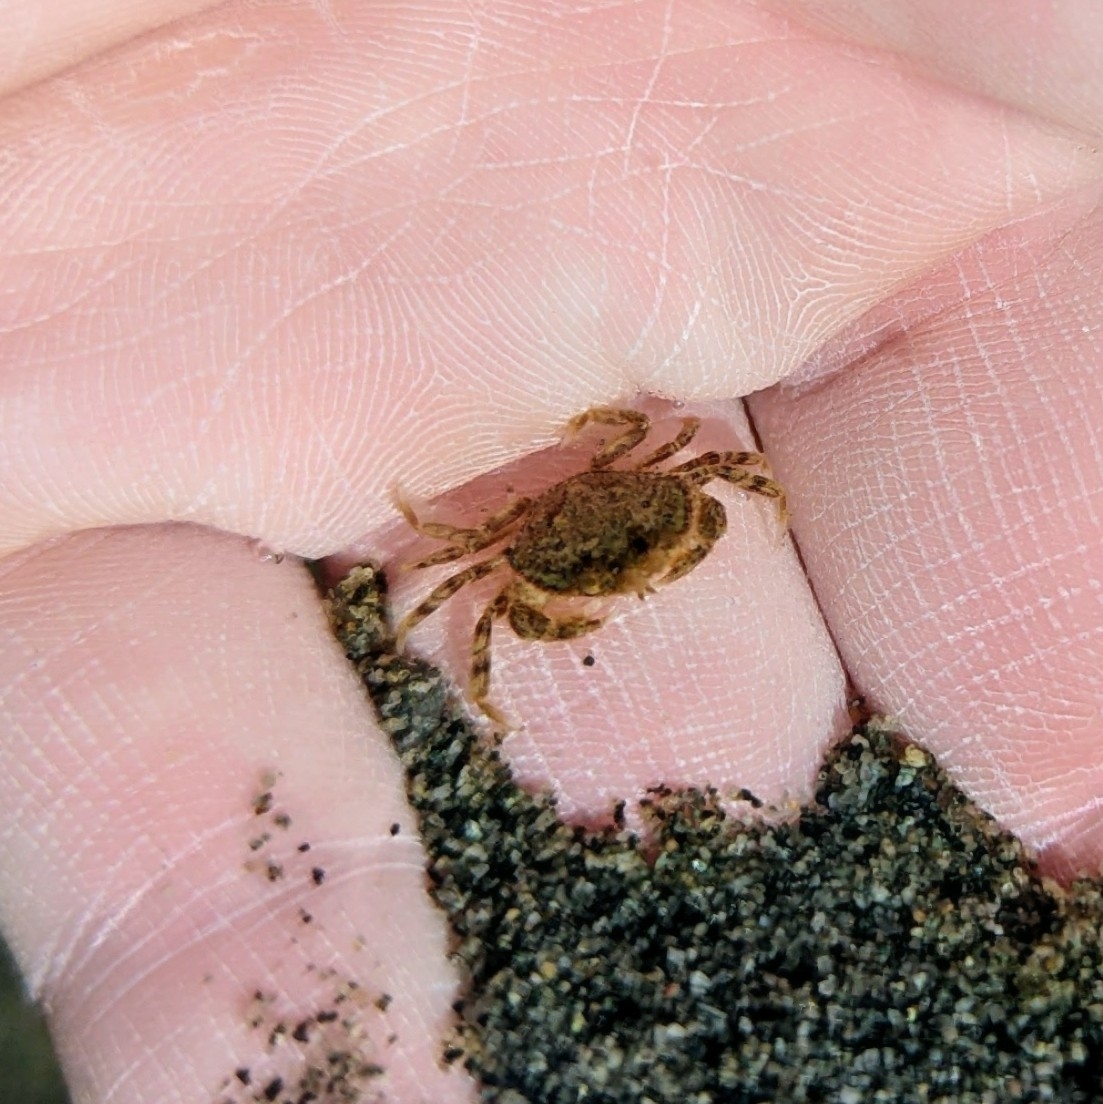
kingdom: Animalia
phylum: Arthropoda
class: Malacostraca
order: Decapoda
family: Cancridae
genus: Metacarcinus
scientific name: Metacarcinus magister
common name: Californian crab
